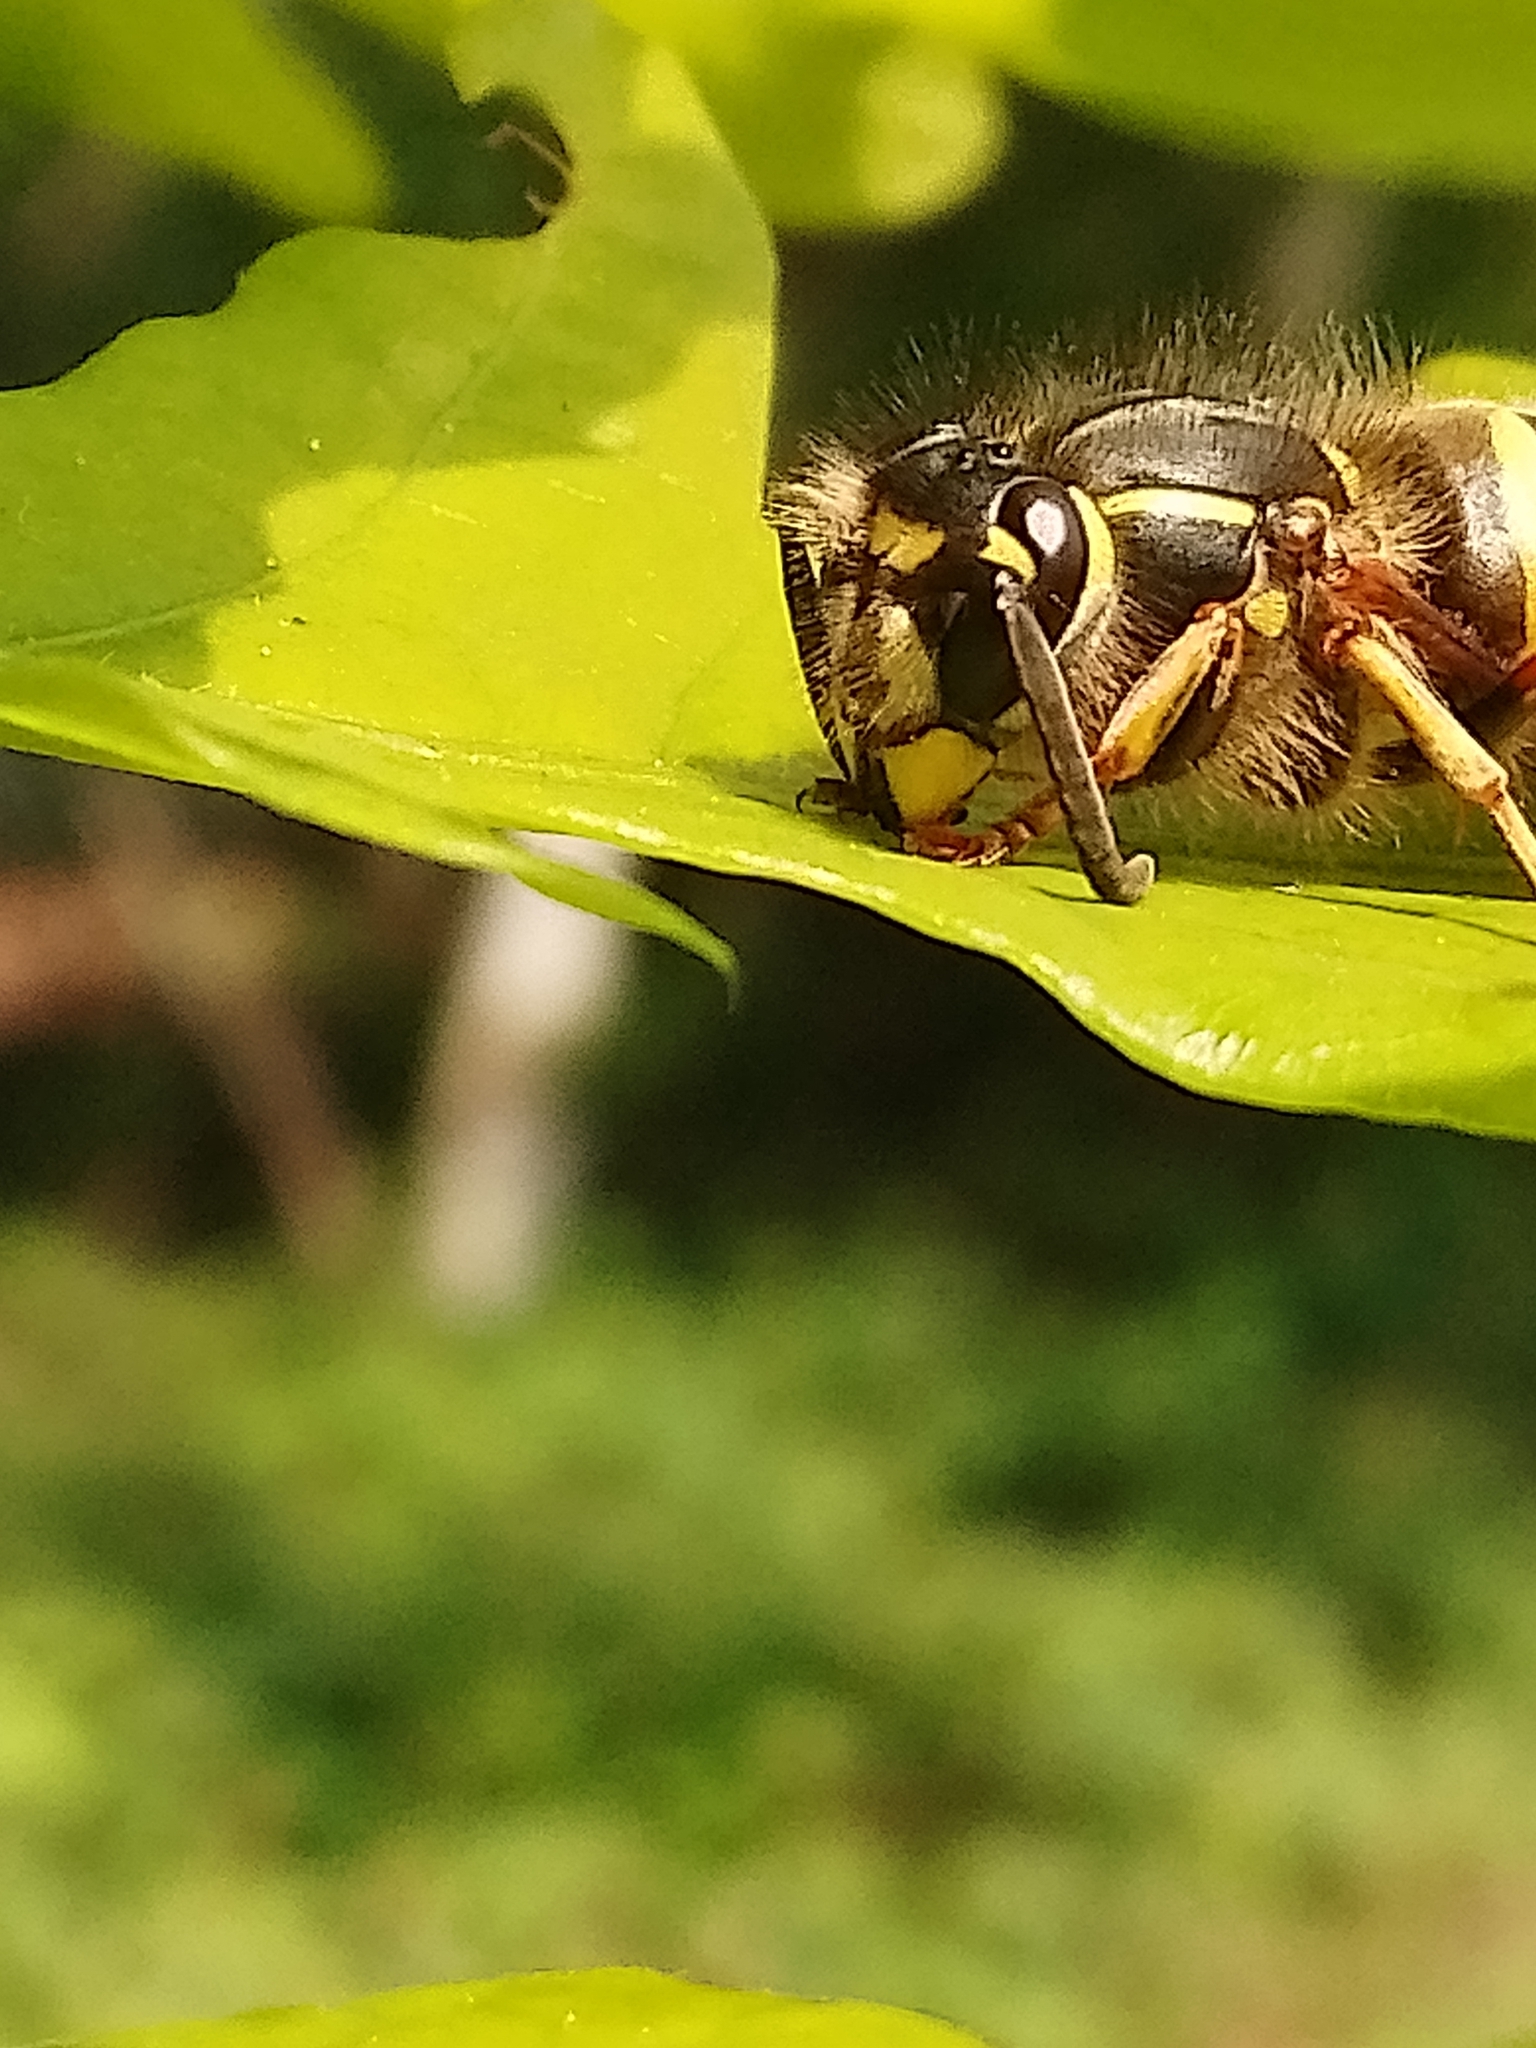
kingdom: Animalia
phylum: Arthropoda
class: Insecta
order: Hymenoptera
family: Vespidae
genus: Vespula
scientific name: Vespula vulgaris
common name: Common wasp
